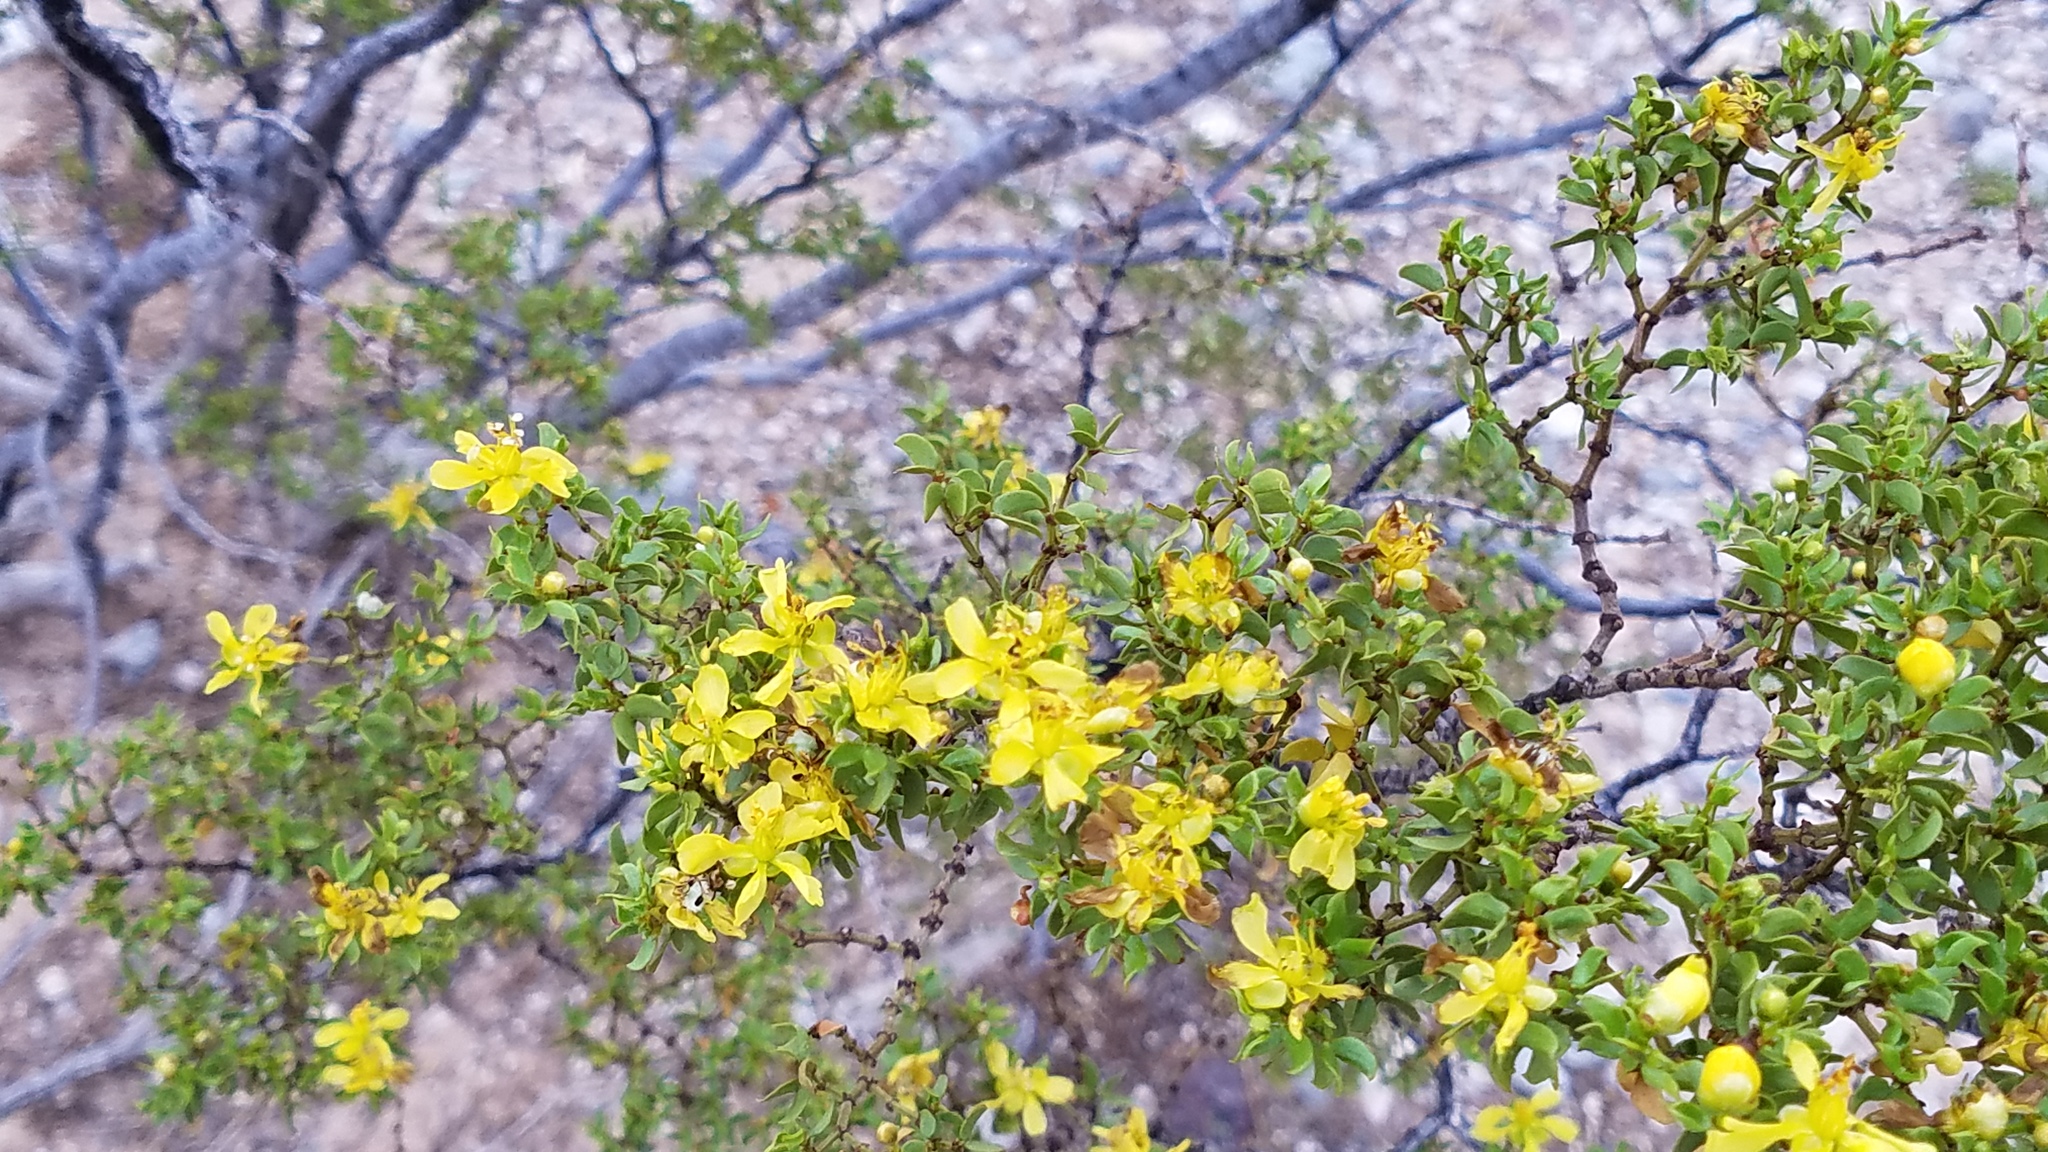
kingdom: Plantae
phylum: Tracheophyta
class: Magnoliopsida
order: Zygophyllales
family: Zygophyllaceae
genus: Larrea
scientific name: Larrea tridentata
